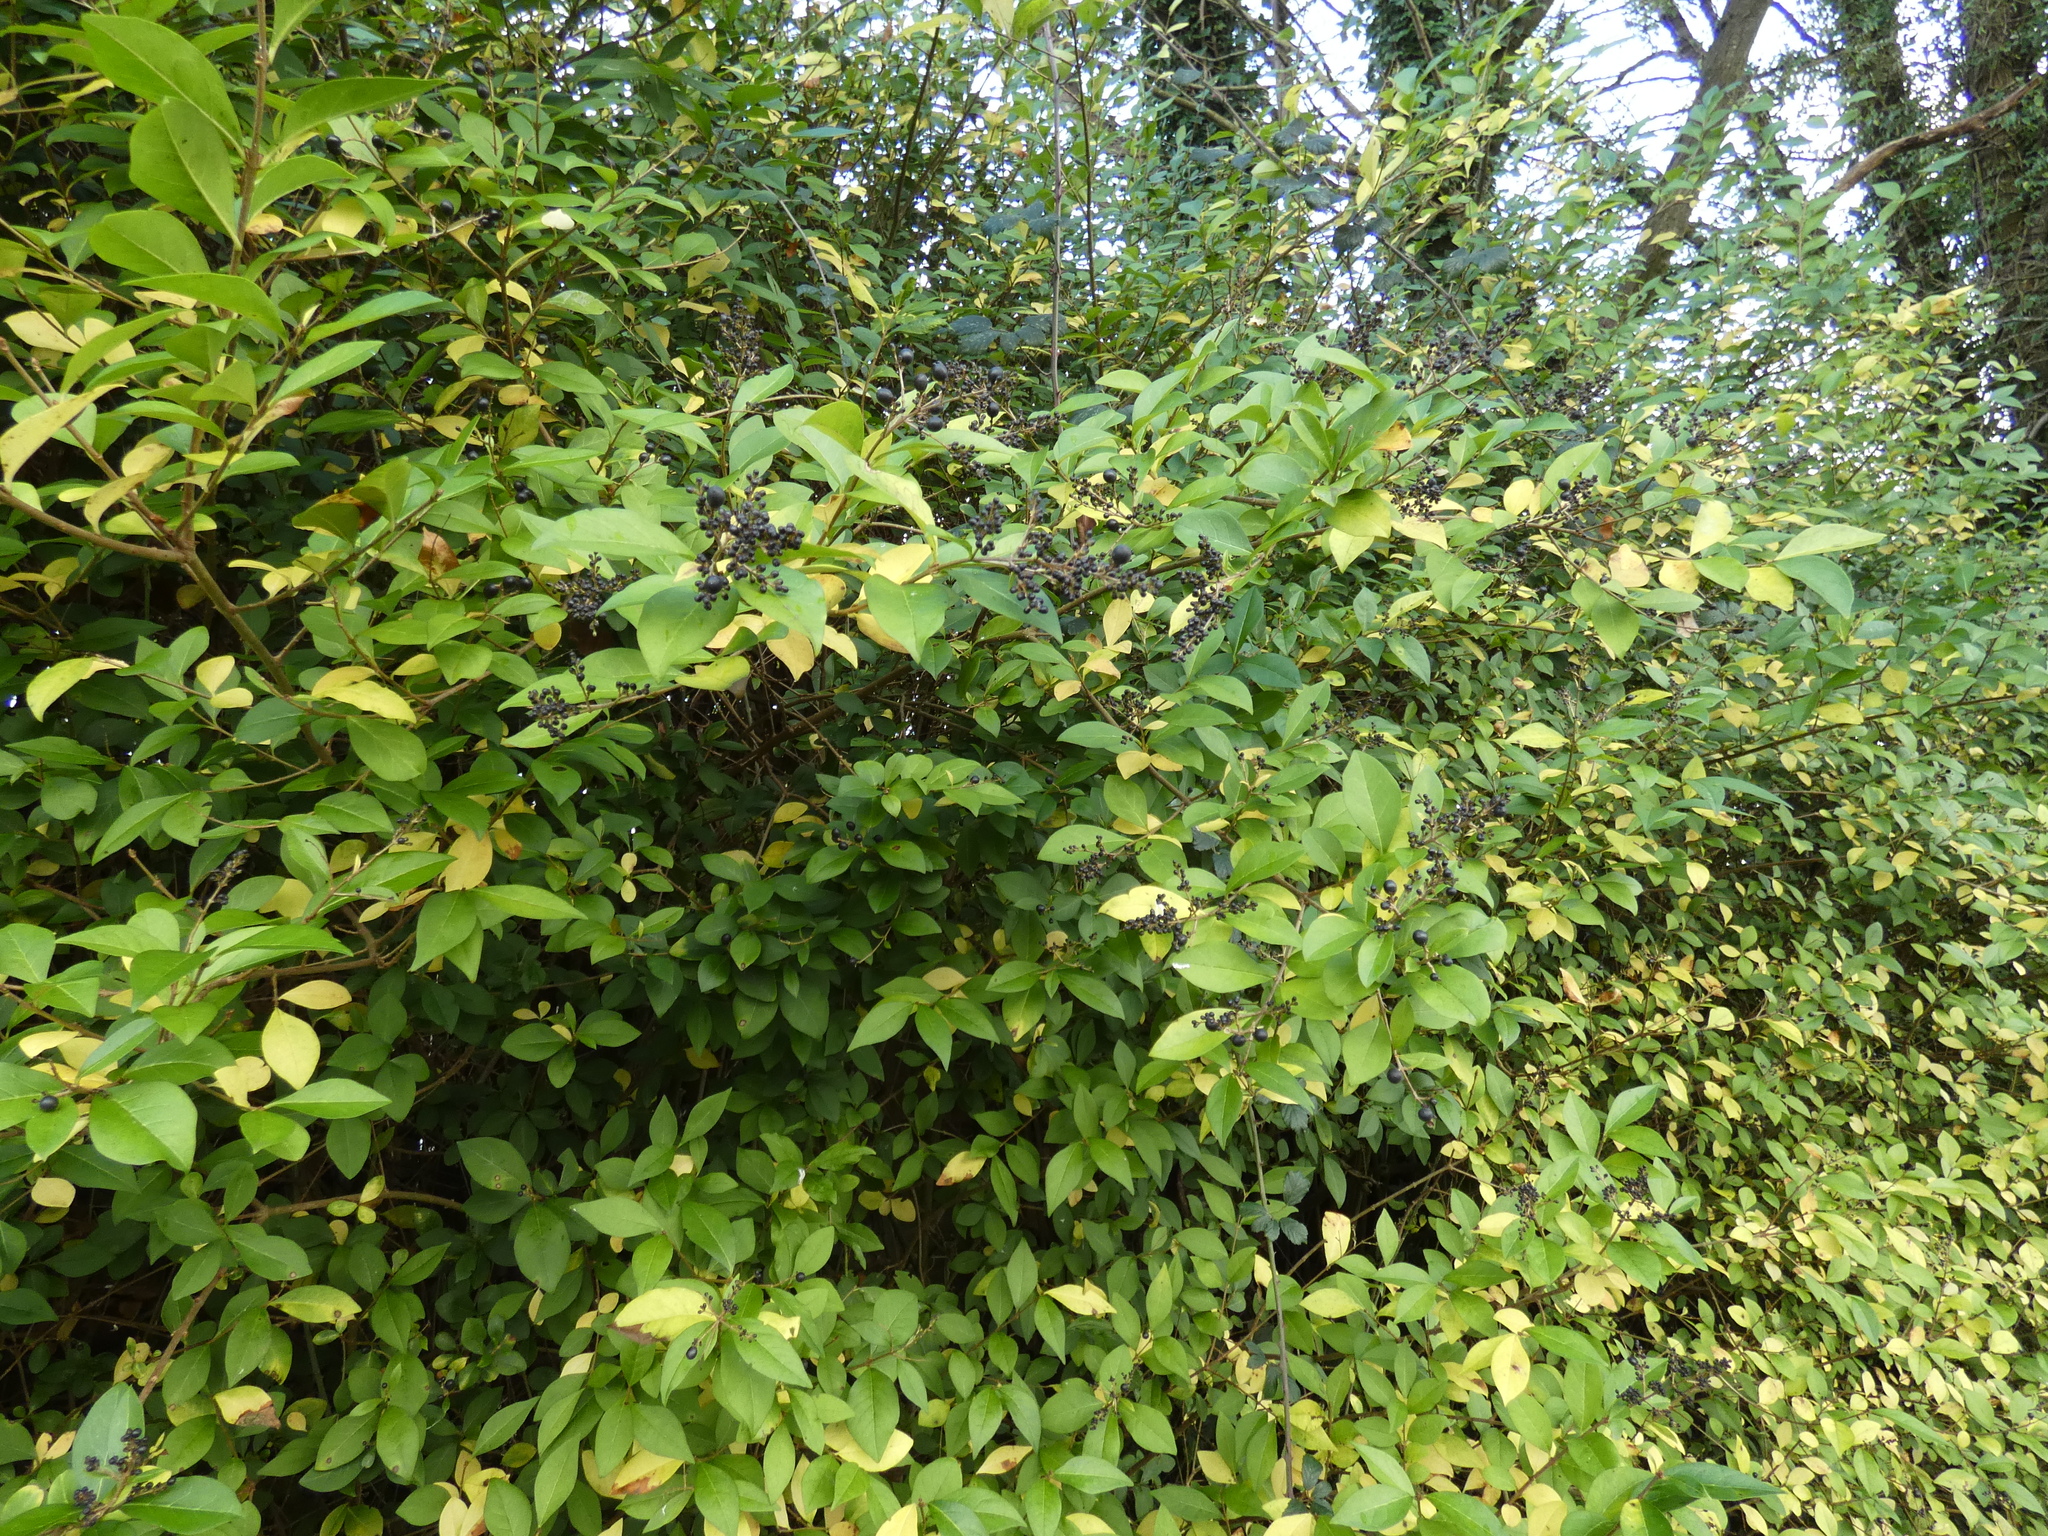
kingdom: Plantae
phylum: Tracheophyta
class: Magnoliopsida
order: Lamiales
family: Oleaceae
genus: Ligustrum
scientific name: Ligustrum ovalifolium
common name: California privet
